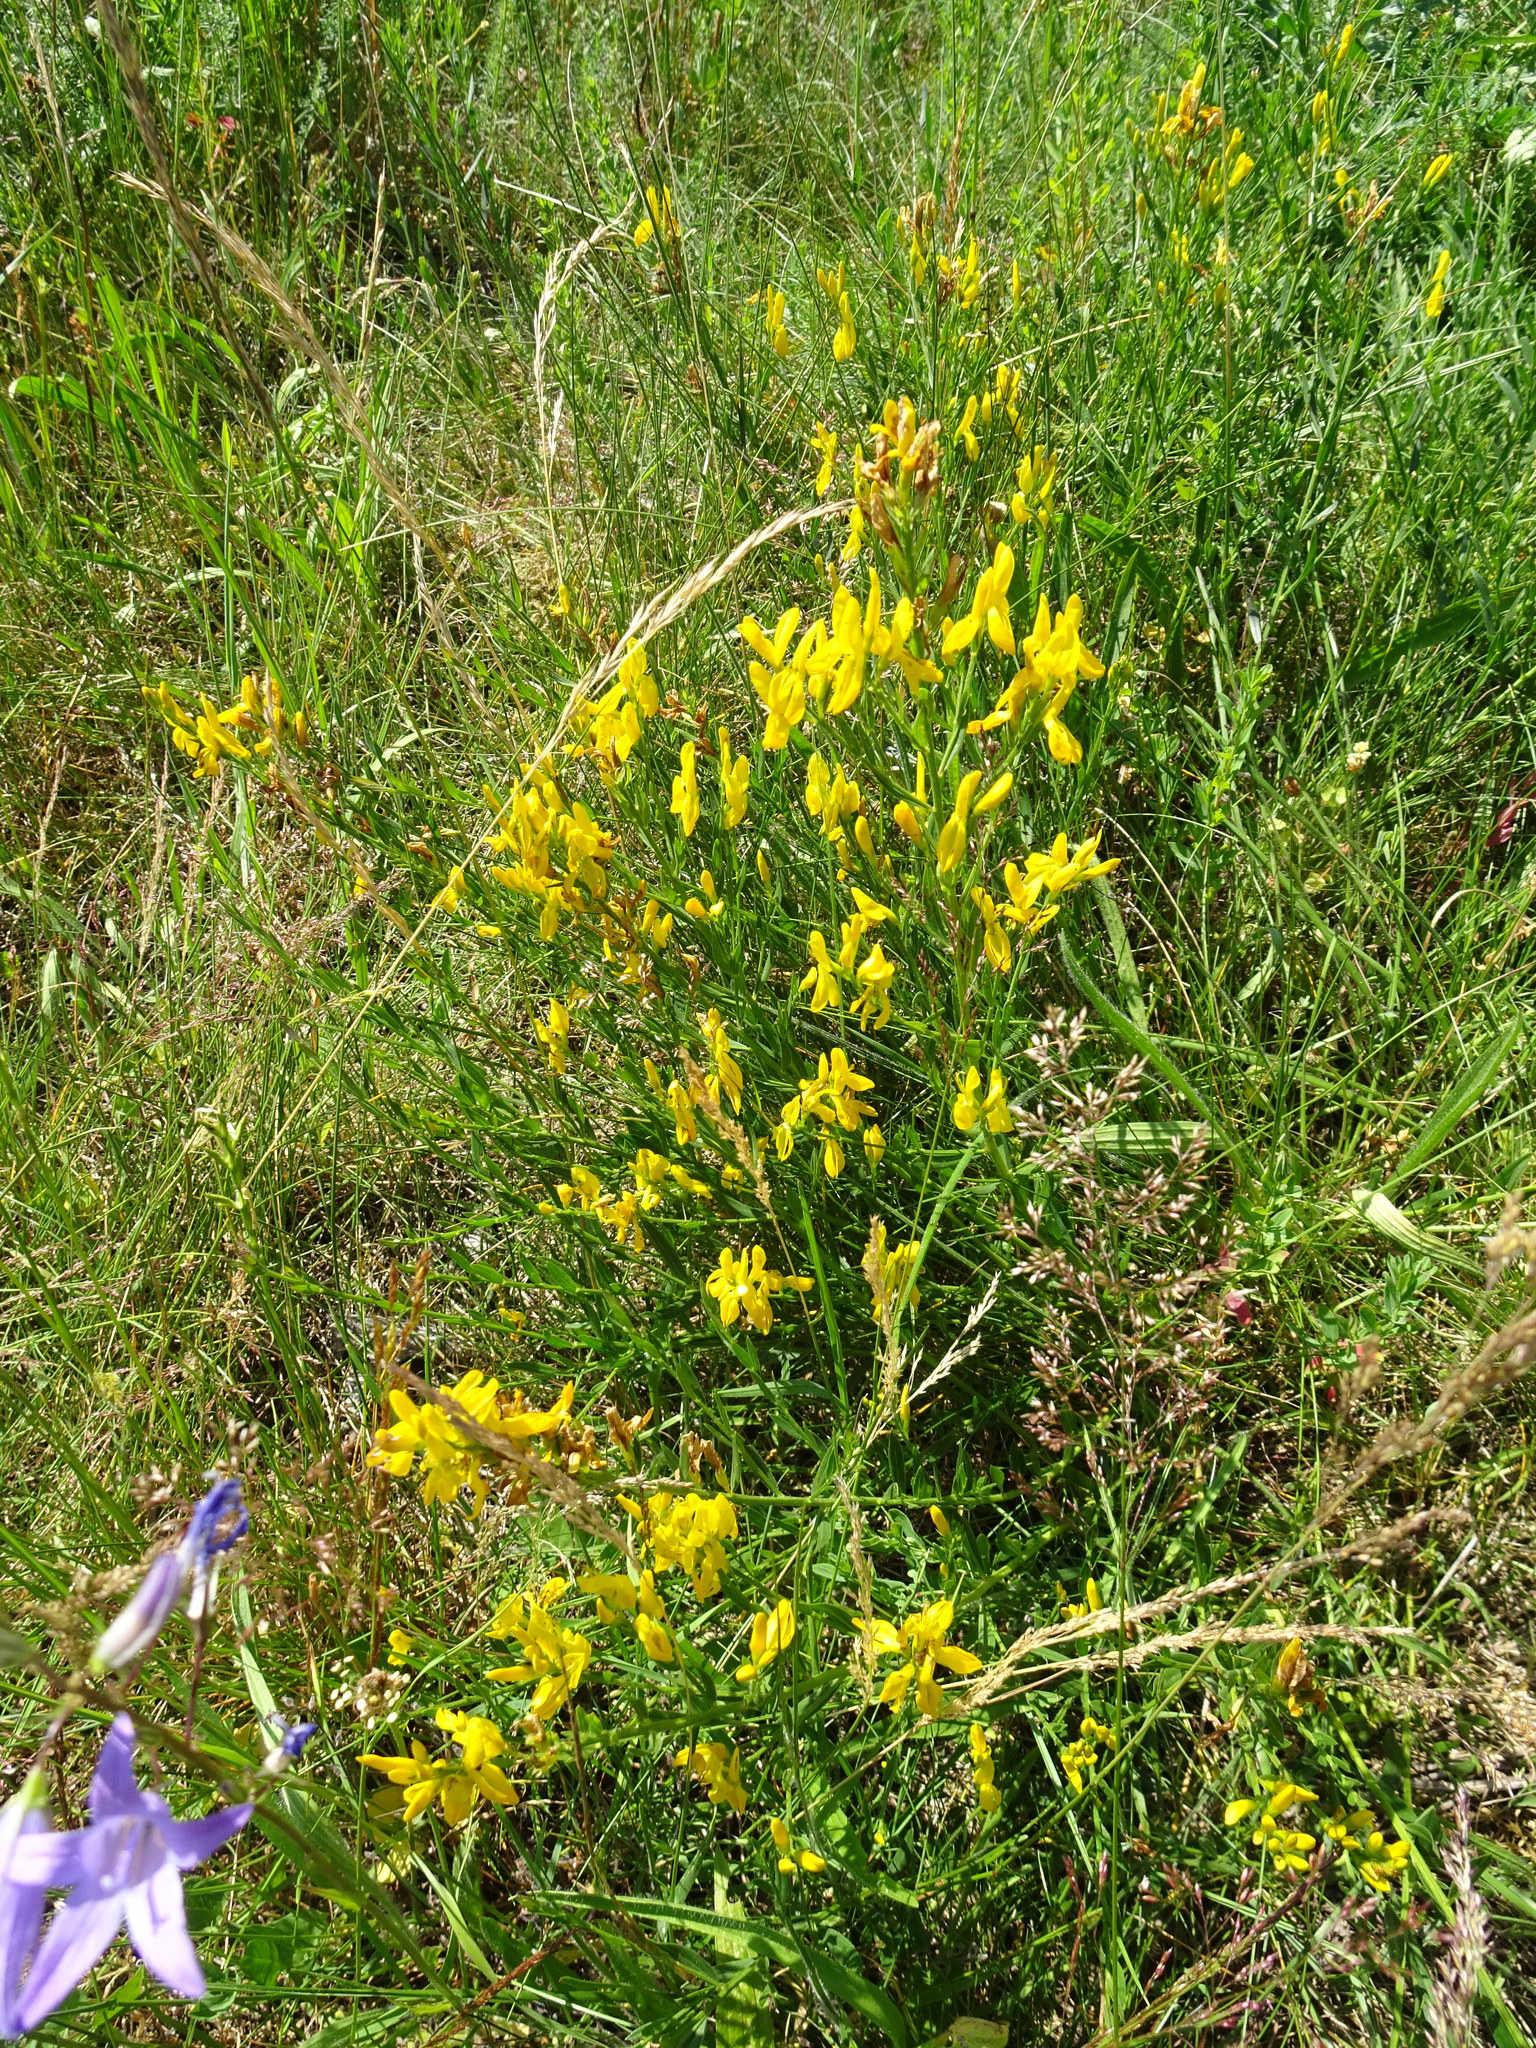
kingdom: Plantae
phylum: Tracheophyta
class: Magnoliopsida
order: Fabales
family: Fabaceae
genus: Genista
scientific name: Genista tinctoria
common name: Dyer's greenweed
